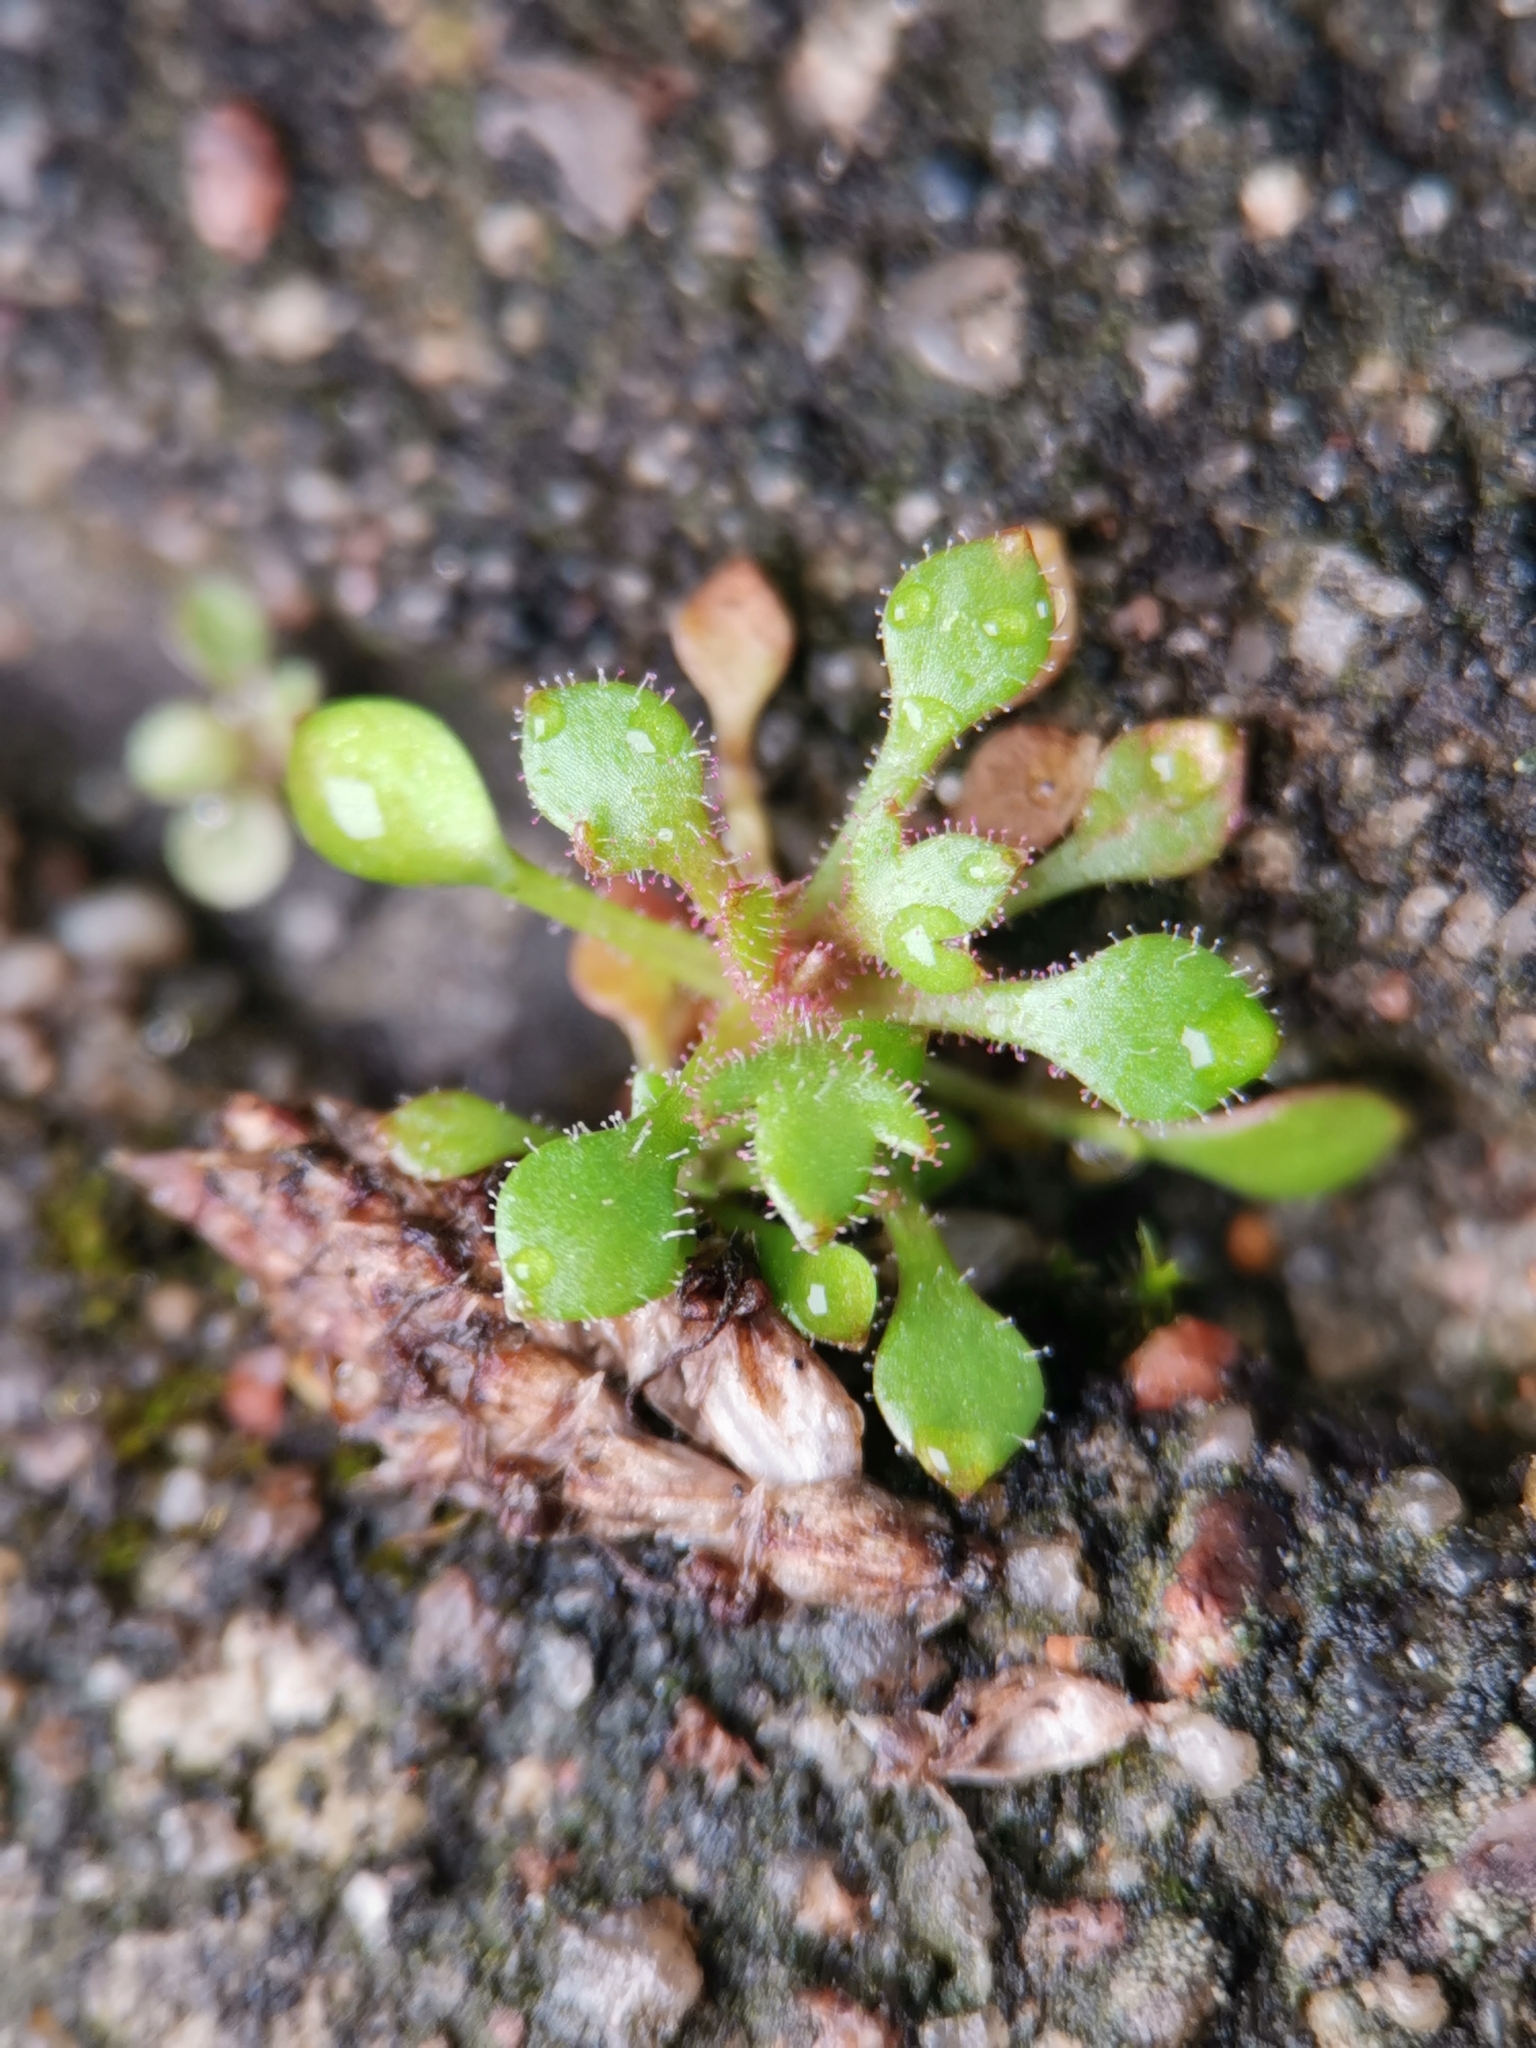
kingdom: Plantae
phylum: Tracheophyta
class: Magnoliopsida
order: Saxifragales
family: Saxifragaceae
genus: Saxifraga
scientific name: Saxifraga tridactylites
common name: Rue-leaved saxifrage
